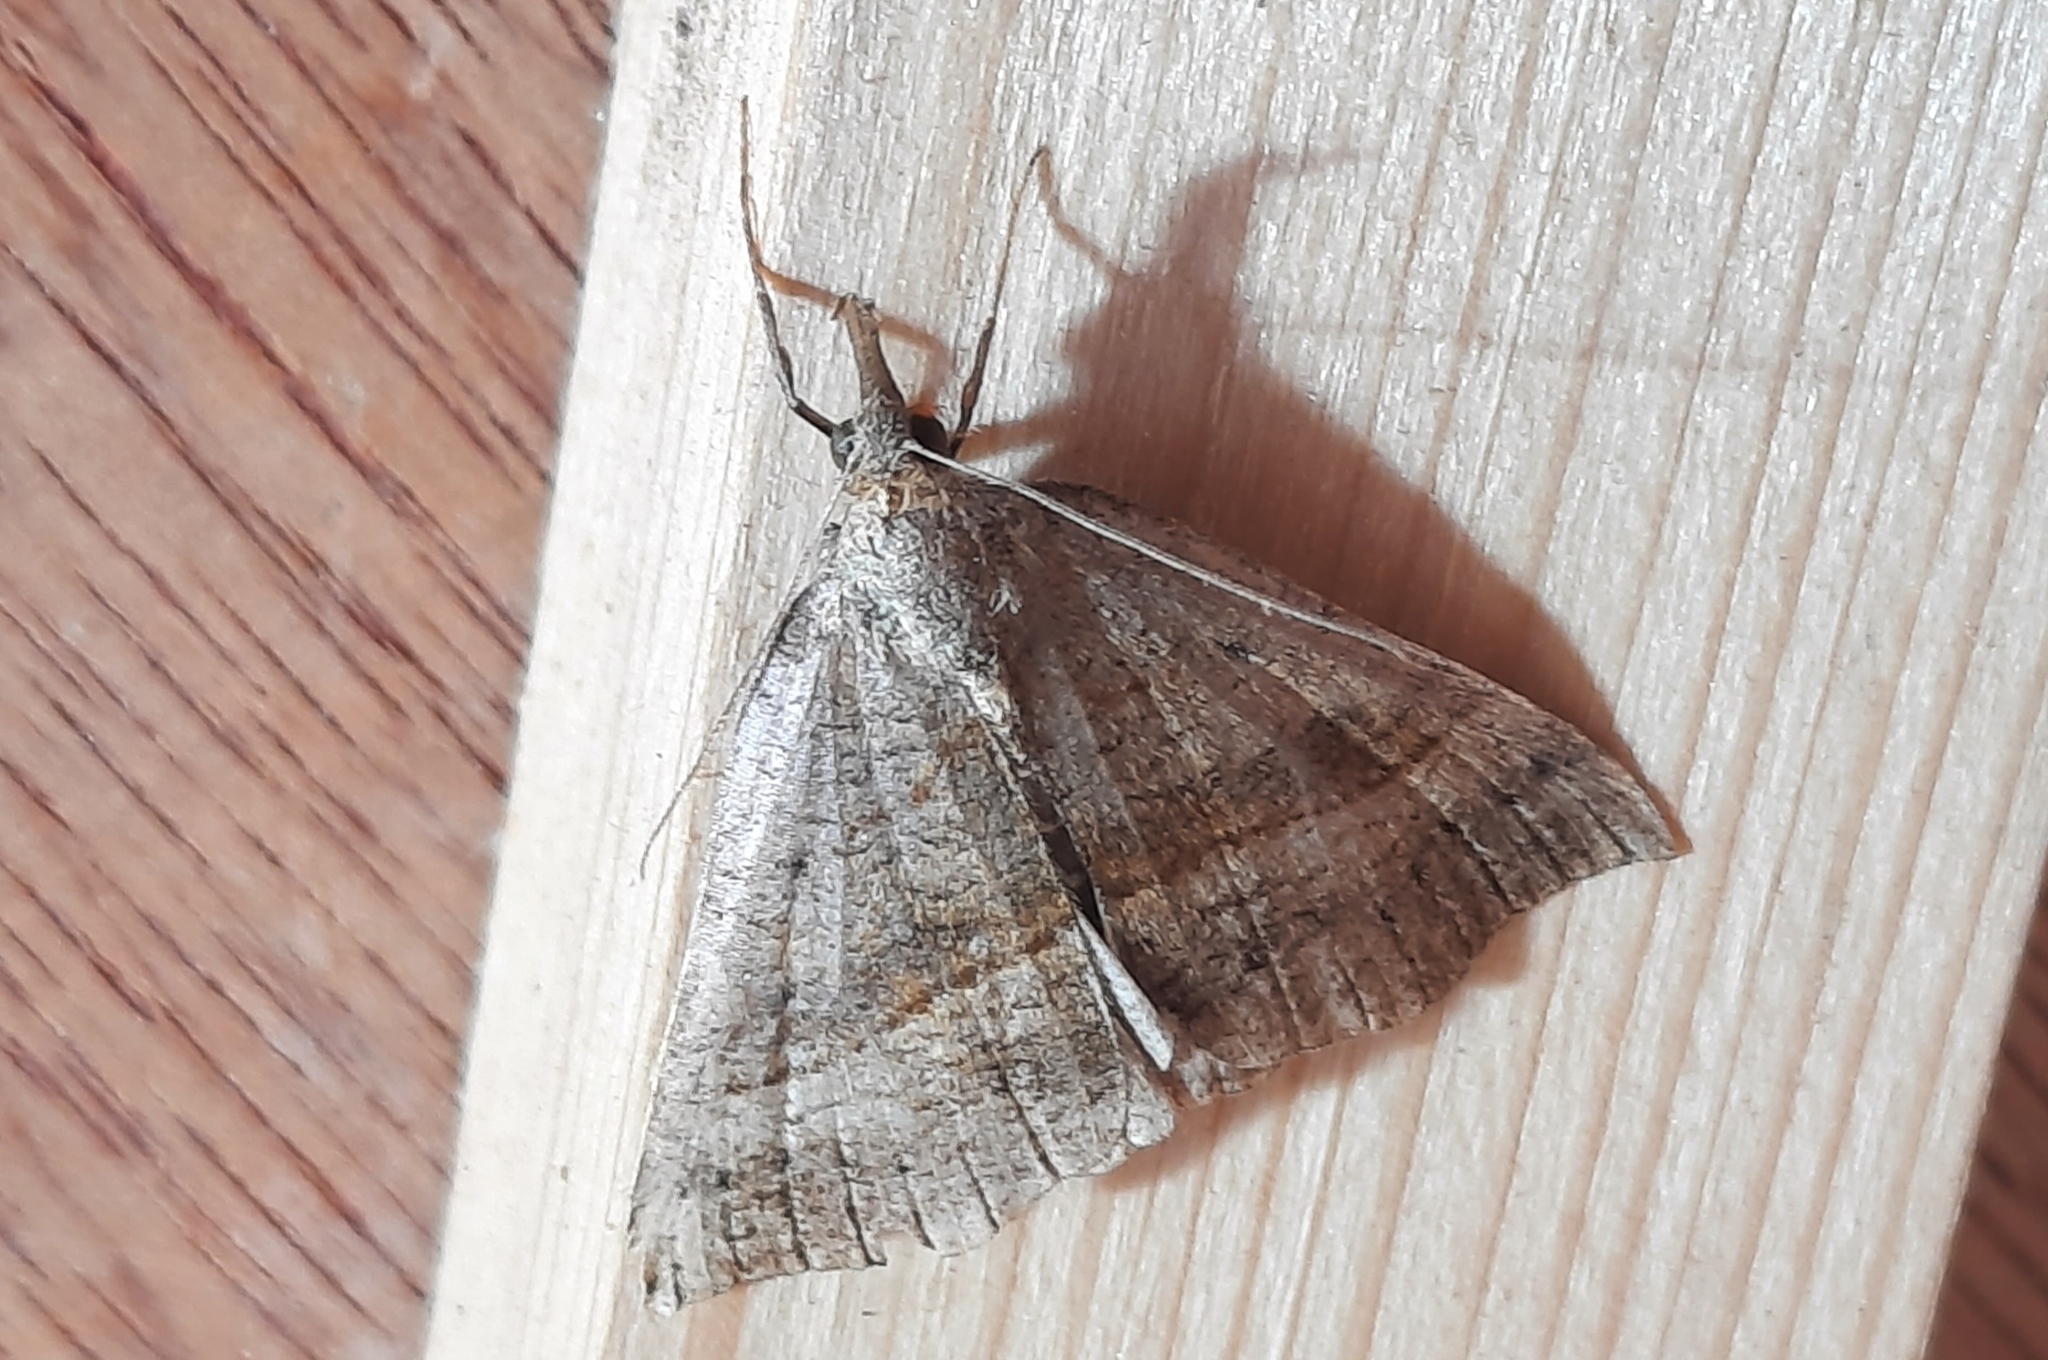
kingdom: Animalia
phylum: Arthropoda
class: Insecta
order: Lepidoptera
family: Erebidae
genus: Hypena
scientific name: Hypena proboscidalis
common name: Snout
